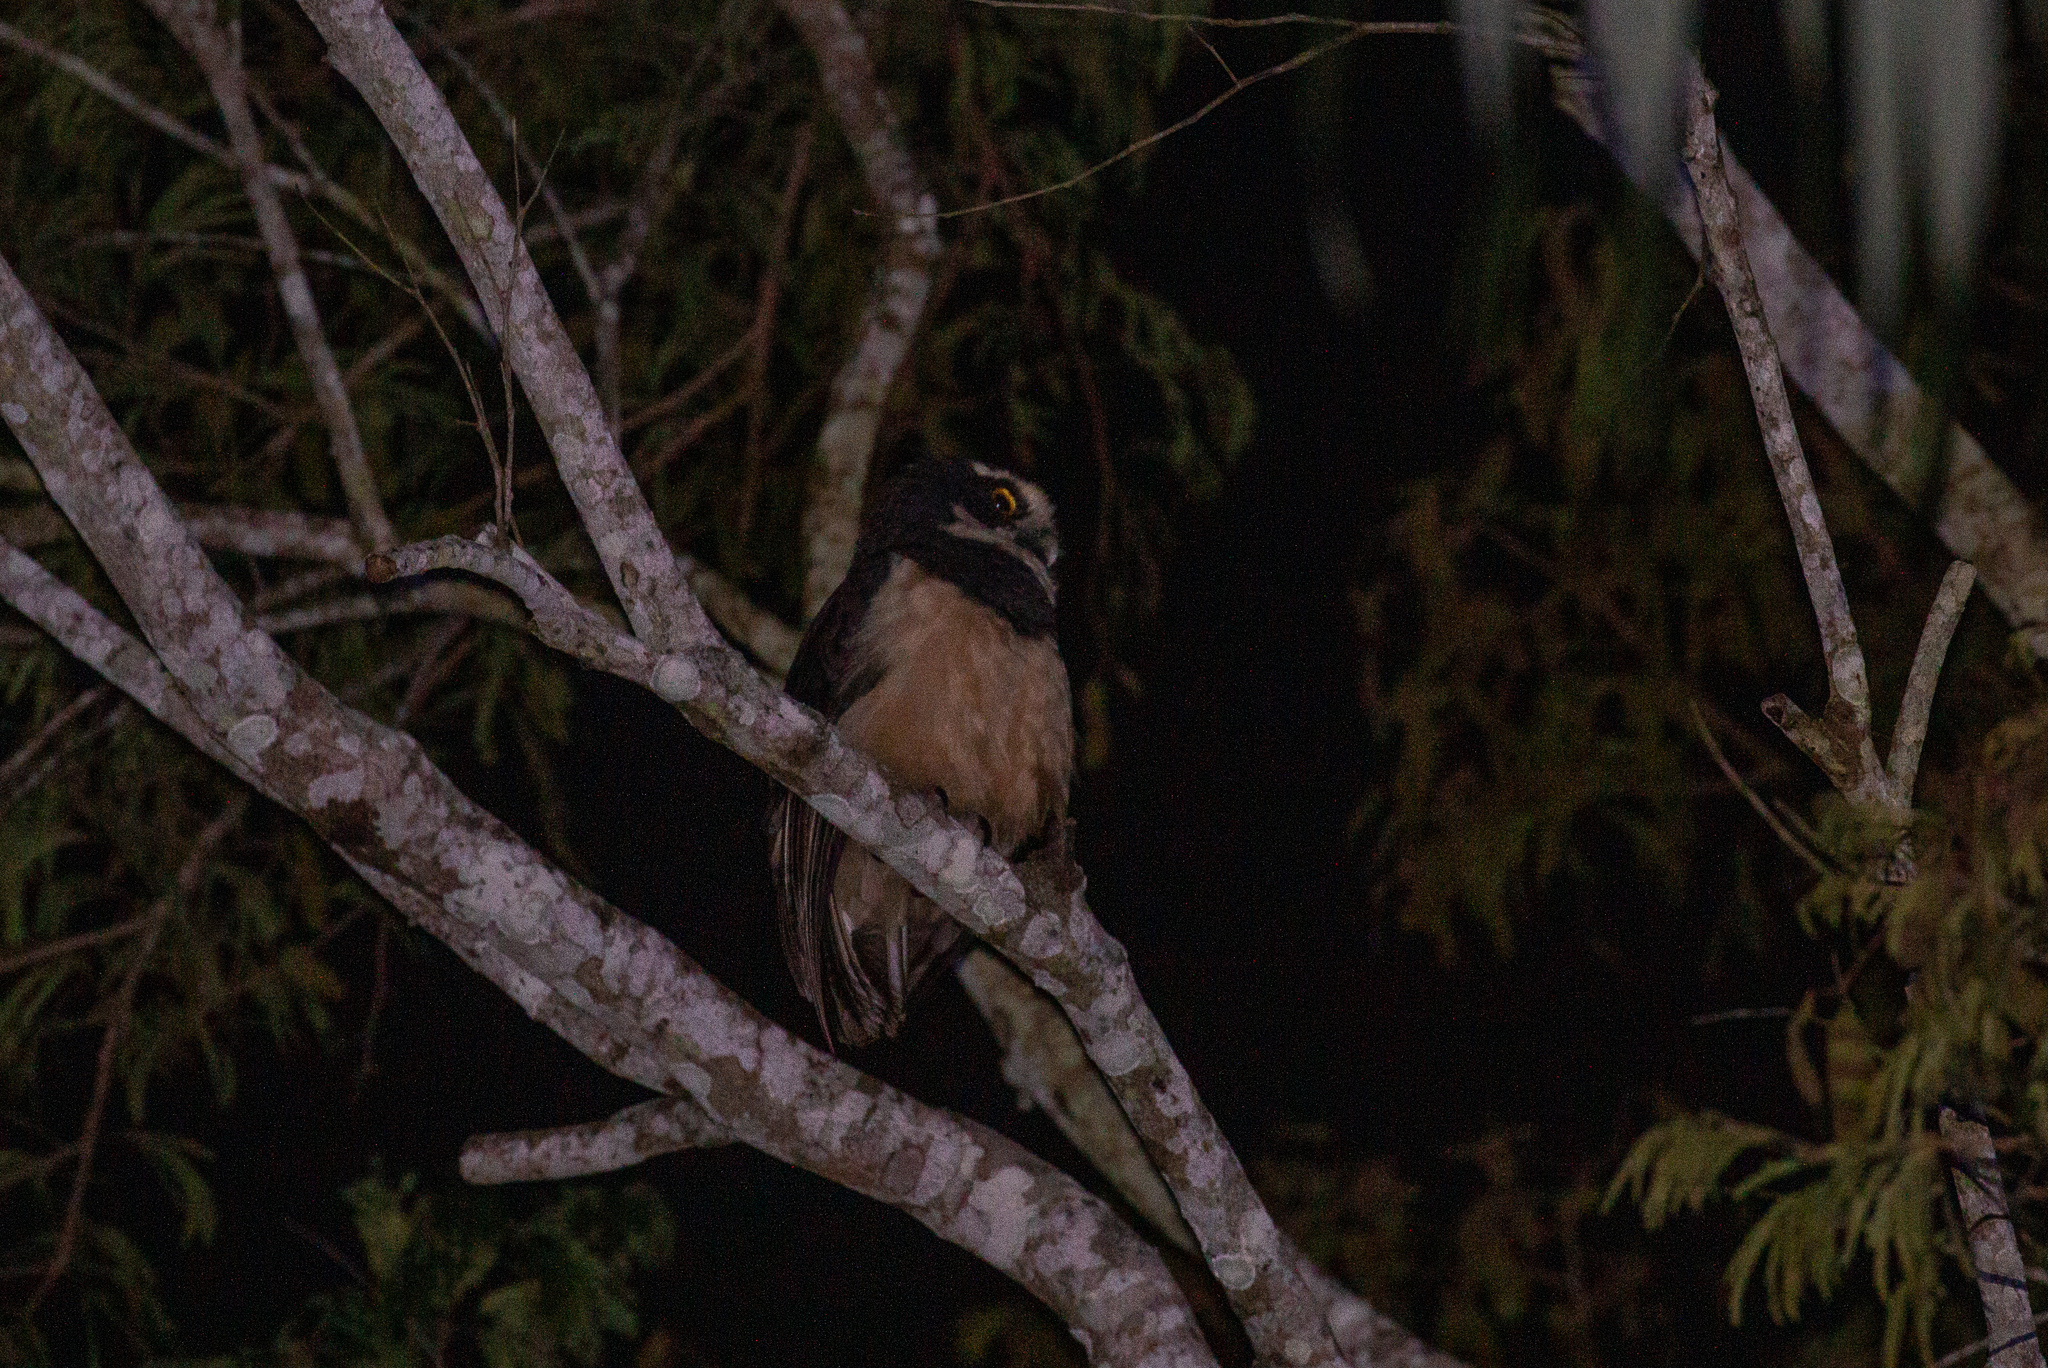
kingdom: Animalia
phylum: Chordata
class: Aves
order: Strigiformes
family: Strigidae
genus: Pulsatrix
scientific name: Pulsatrix perspicillata
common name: Spectacled owl
